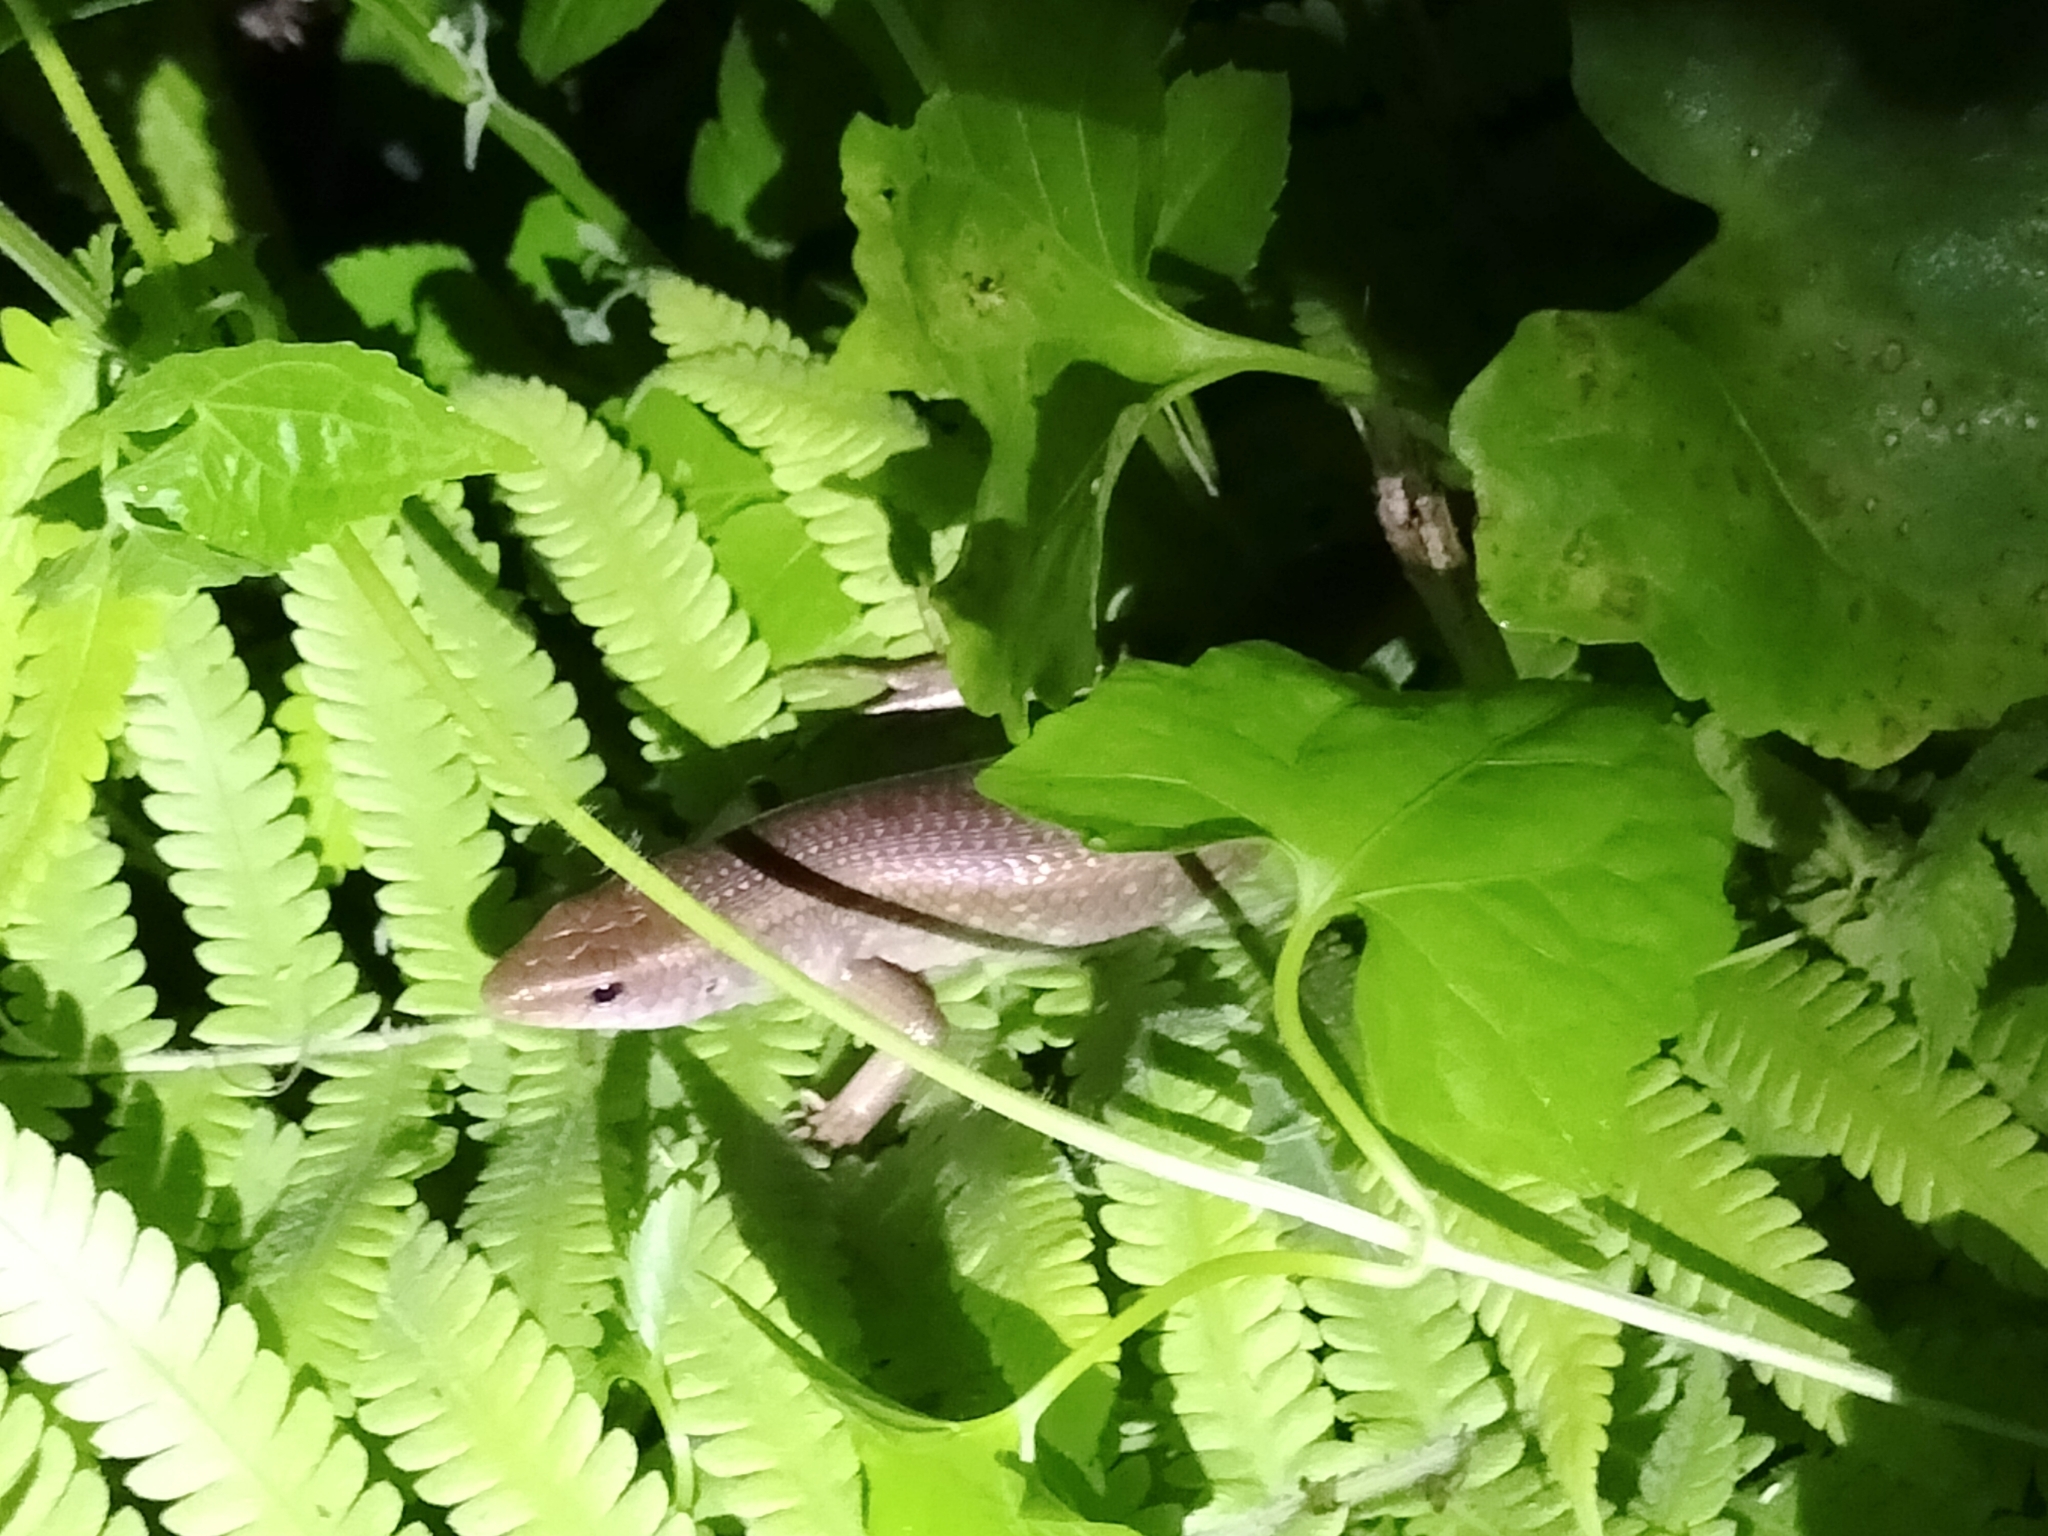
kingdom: Animalia
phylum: Chordata
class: Squamata
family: Scincidae
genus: Eutropis
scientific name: Eutropis multifasciata
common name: Common mabuya
